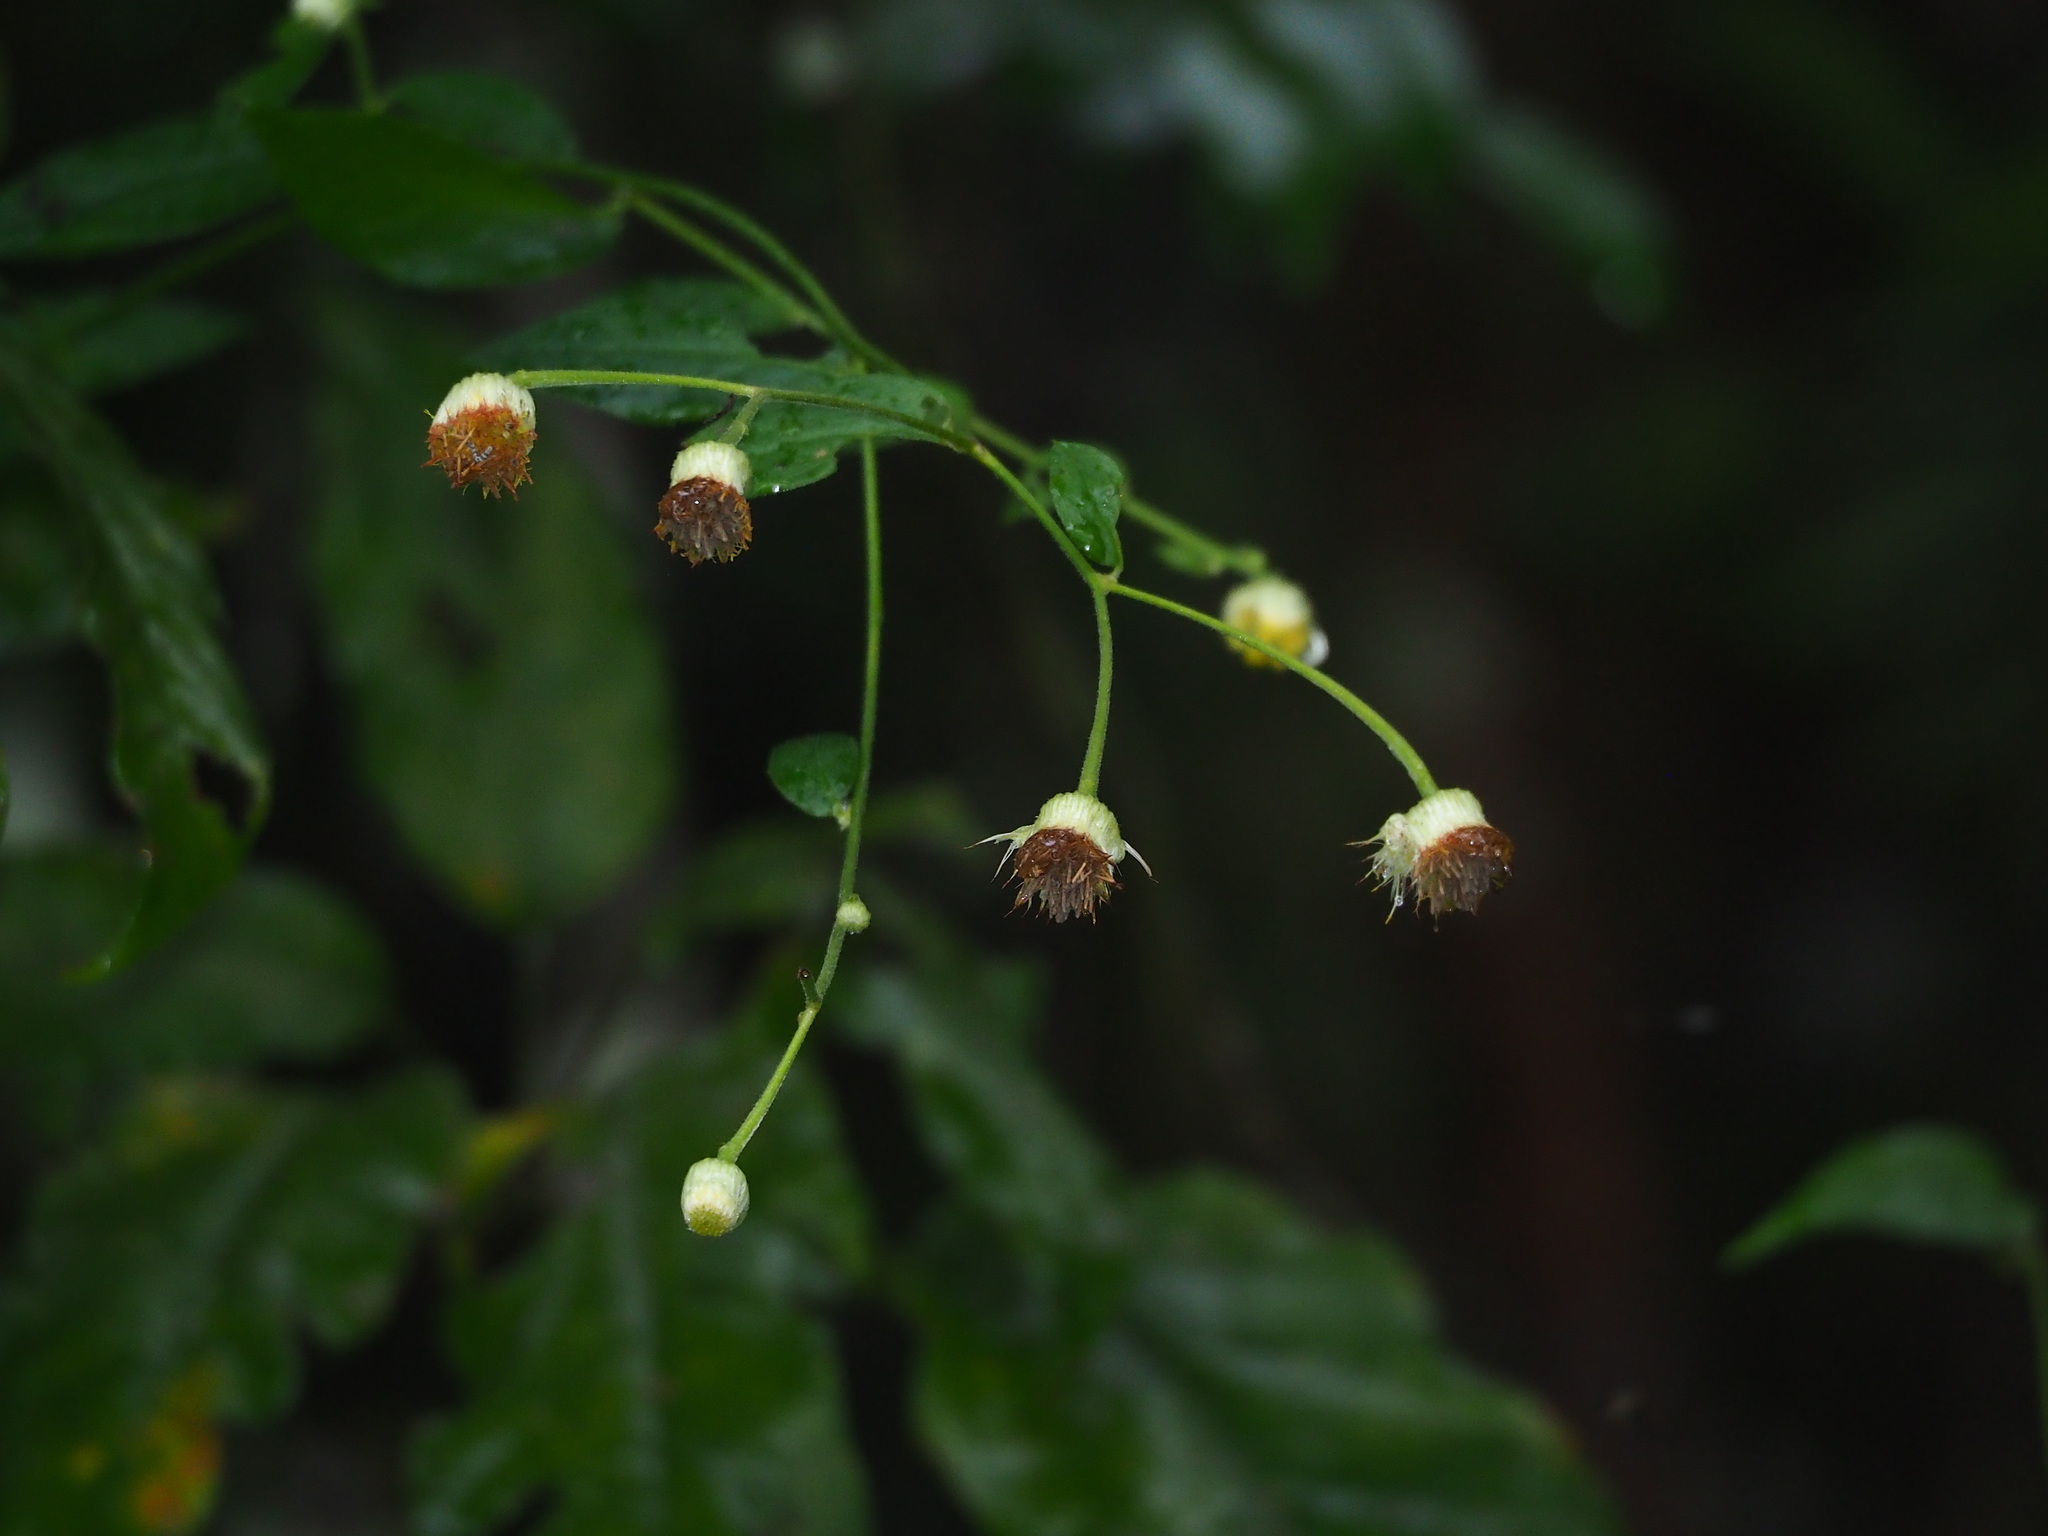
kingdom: Plantae
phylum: Tracheophyta
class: Magnoliopsida
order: Asterales
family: Asteraceae
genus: Blumea
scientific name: Blumea megacephala
